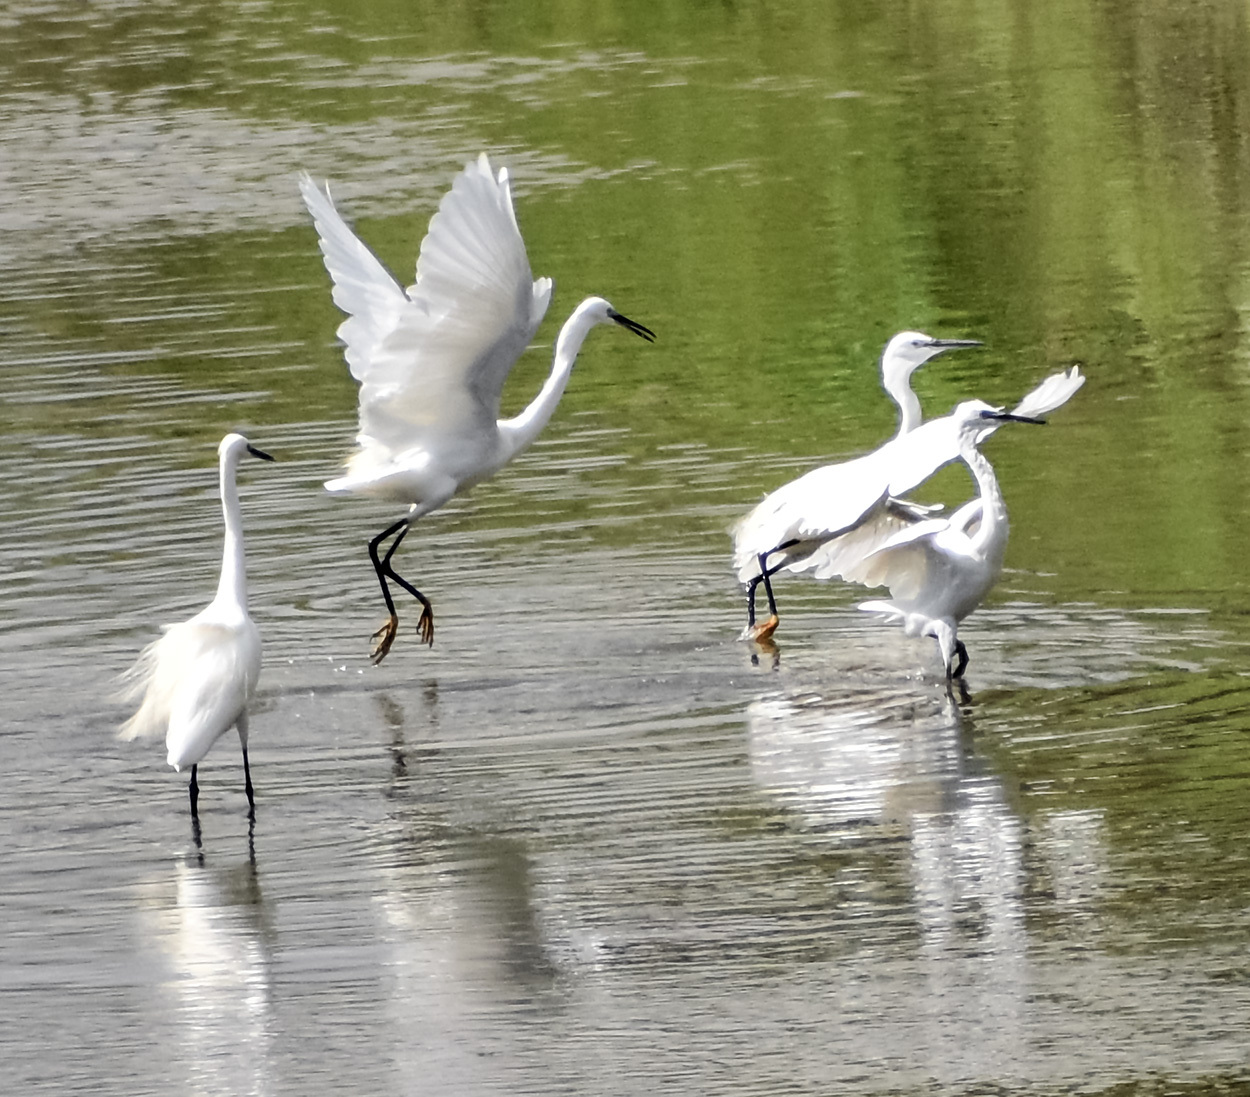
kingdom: Animalia
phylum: Chordata
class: Aves
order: Pelecaniformes
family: Ardeidae
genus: Egretta
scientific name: Egretta garzetta
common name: Little egret
